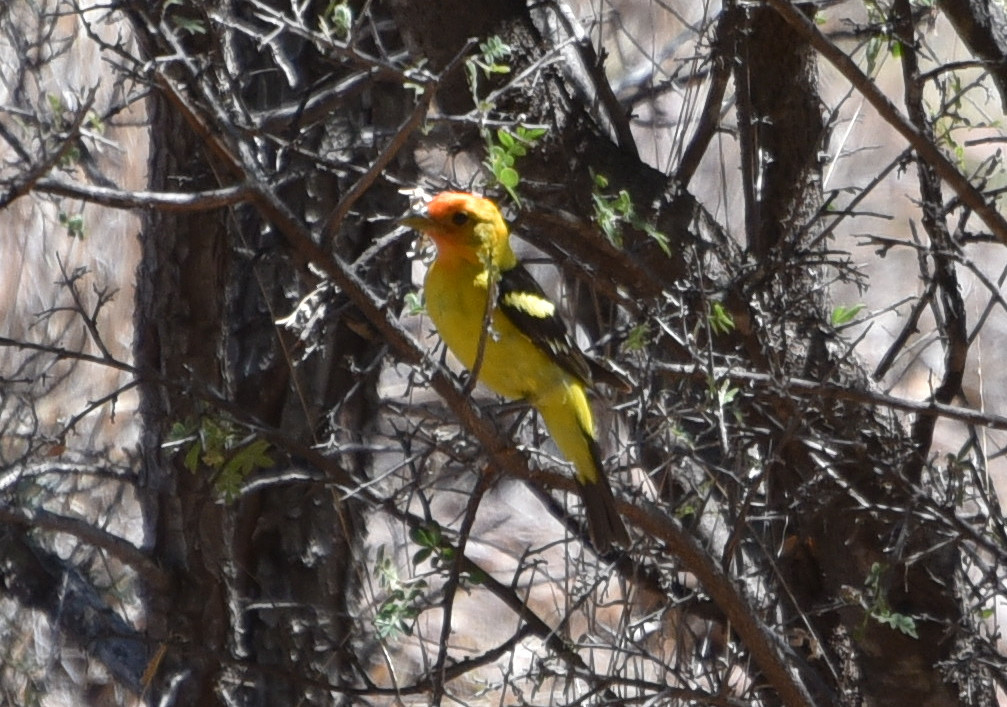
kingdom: Animalia
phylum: Chordata
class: Aves
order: Passeriformes
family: Cardinalidae
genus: Piranga
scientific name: Piranga ludoviciana
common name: Western tanager
